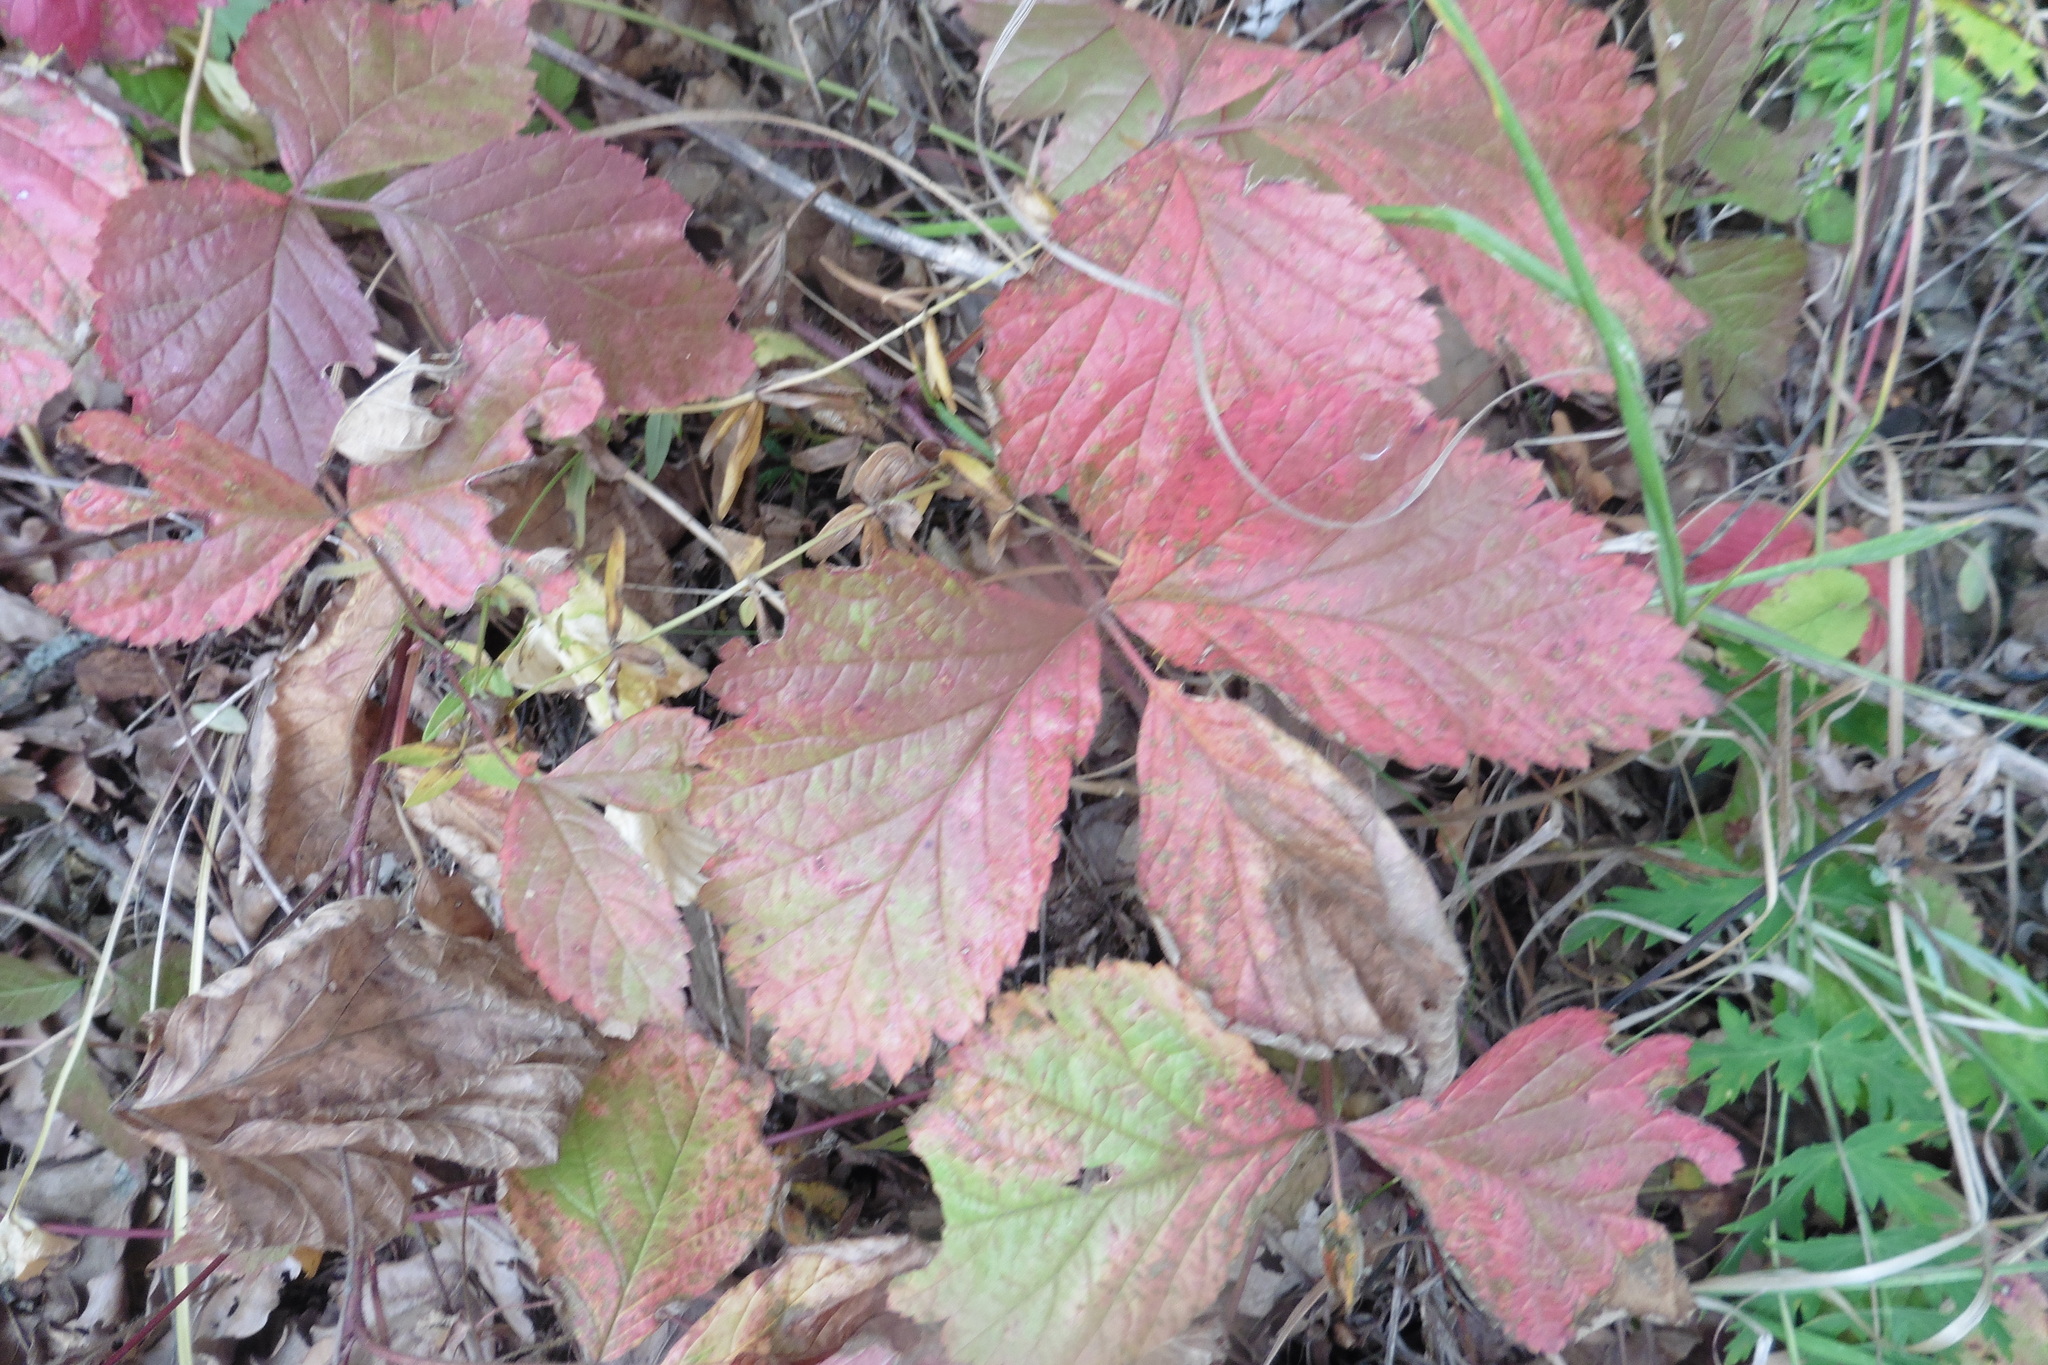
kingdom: Plantae
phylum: Tracheophyta
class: Magnoliopsida
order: Rosales
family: Rosaceae
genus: Rubus
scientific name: Rubus saxatilis
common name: Stone bramble
